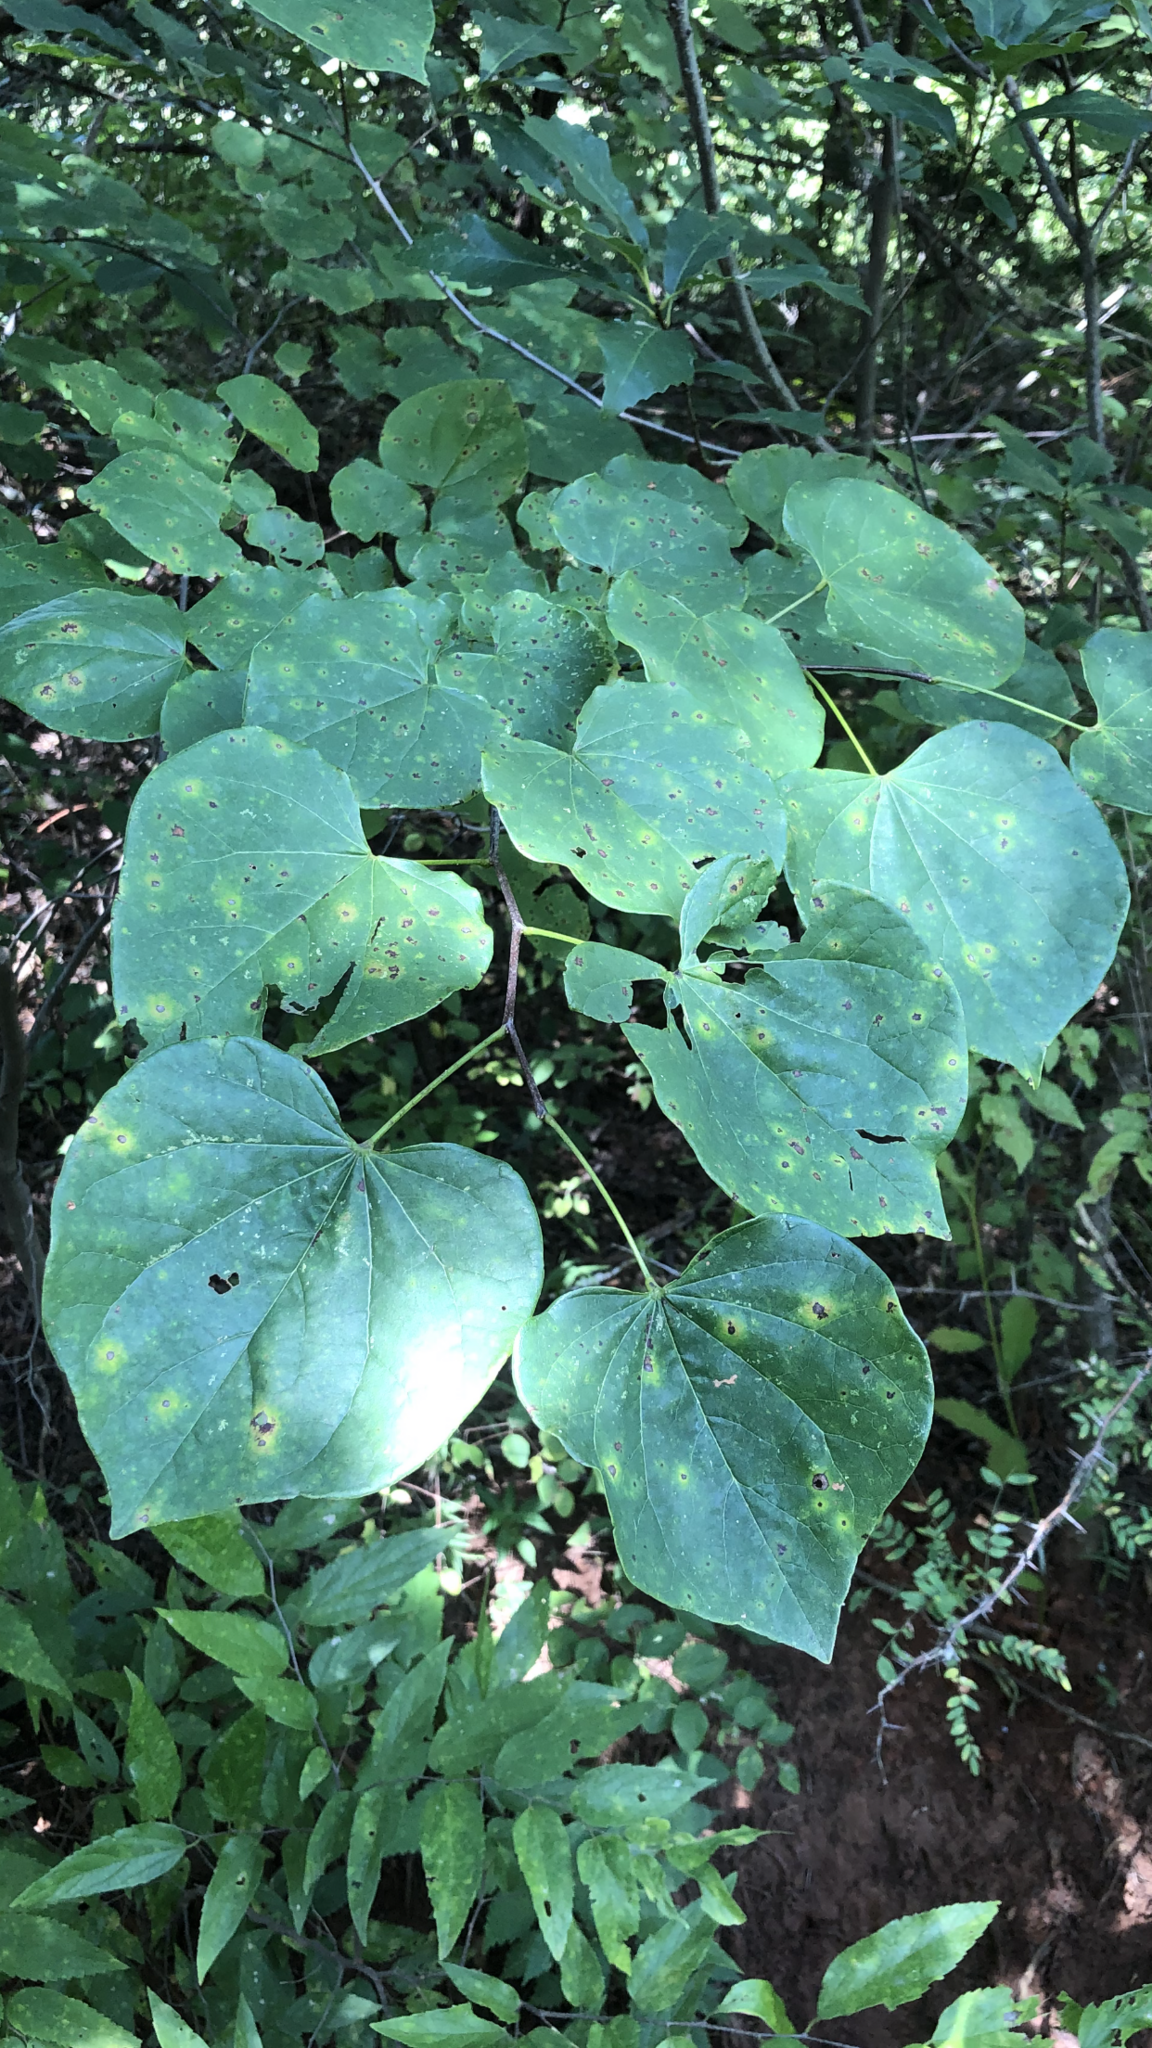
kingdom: Plantae
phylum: Tracheophyta
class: Magnoliopsida
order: Fabales
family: Fabaceae
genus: Cercis
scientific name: Cercis canadensis
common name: Eastern redbud
